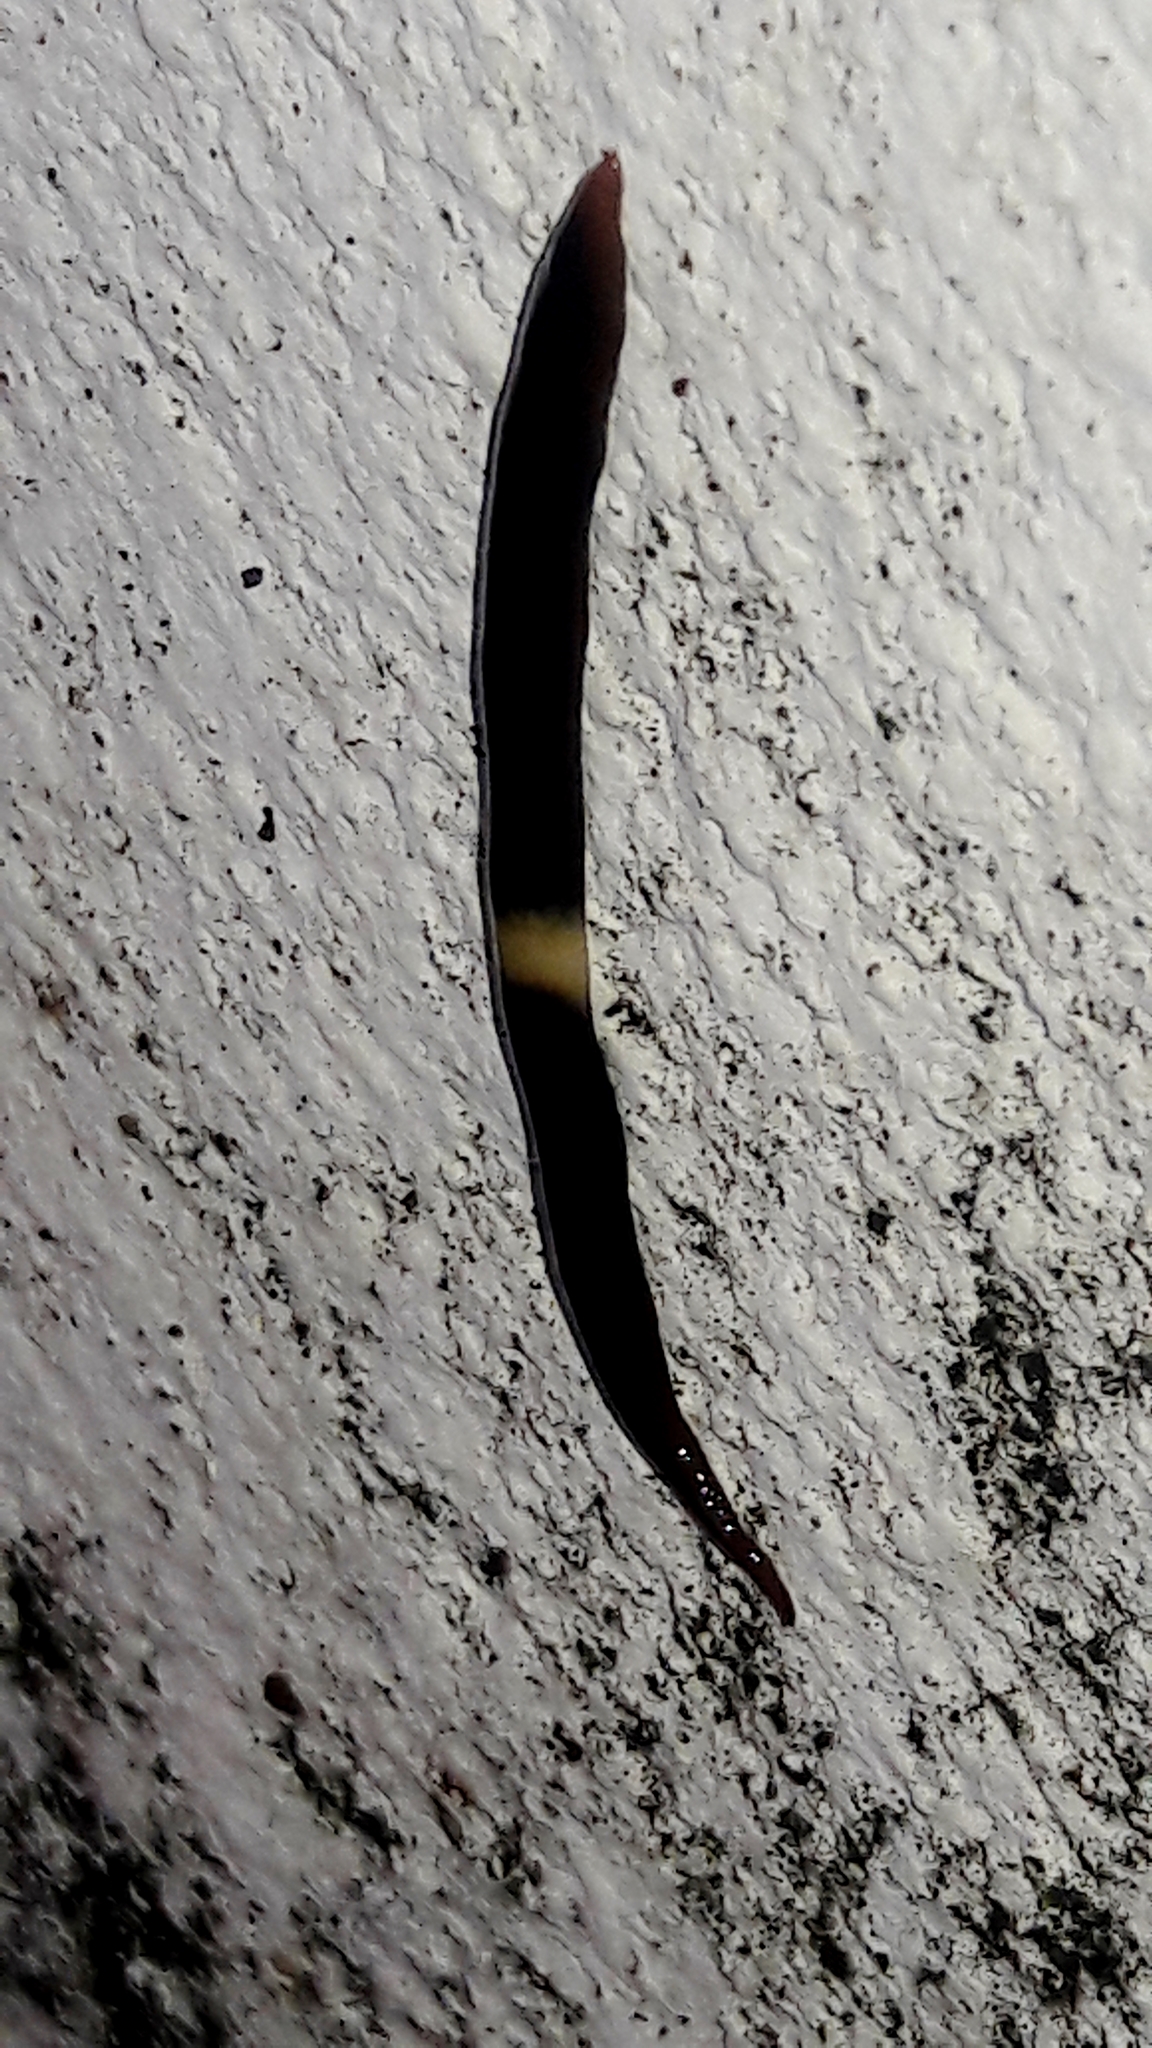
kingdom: Animalia
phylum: Platyhelminthes
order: Tricladida
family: Geoplanidae
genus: Paraba
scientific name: Paraba pankaru
